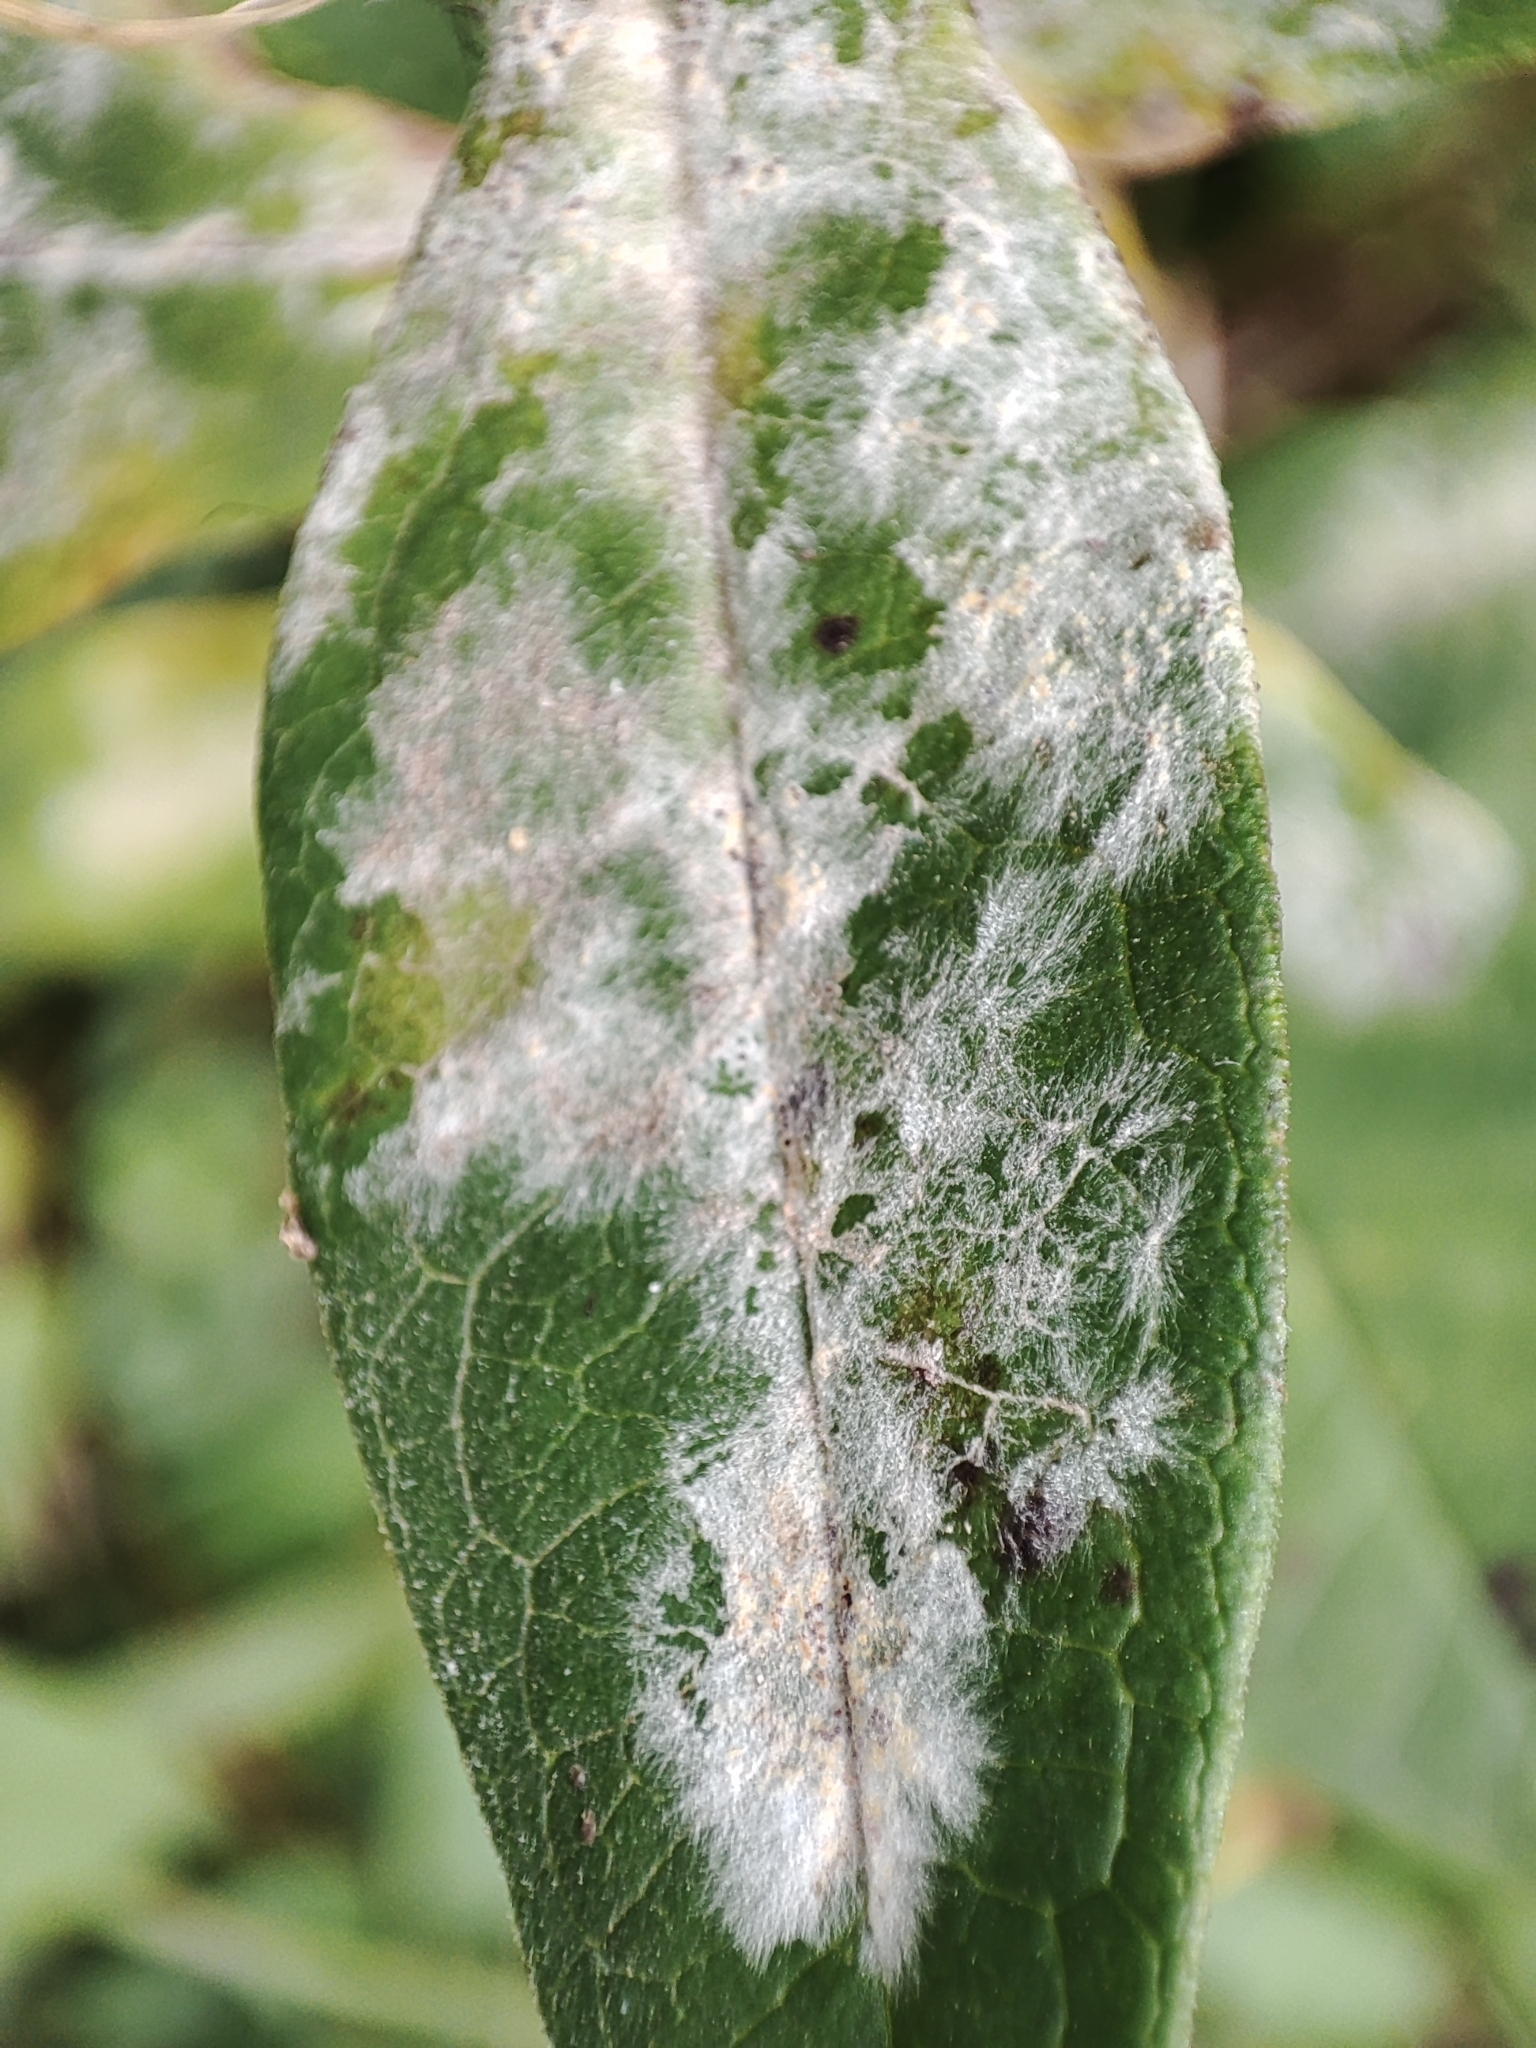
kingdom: Fungi
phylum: Ascomycota
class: Leotiomycetes
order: Helotiales
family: Erysiphaceae
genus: Golovinomyces
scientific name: Golovinomyces magnicellulatus
